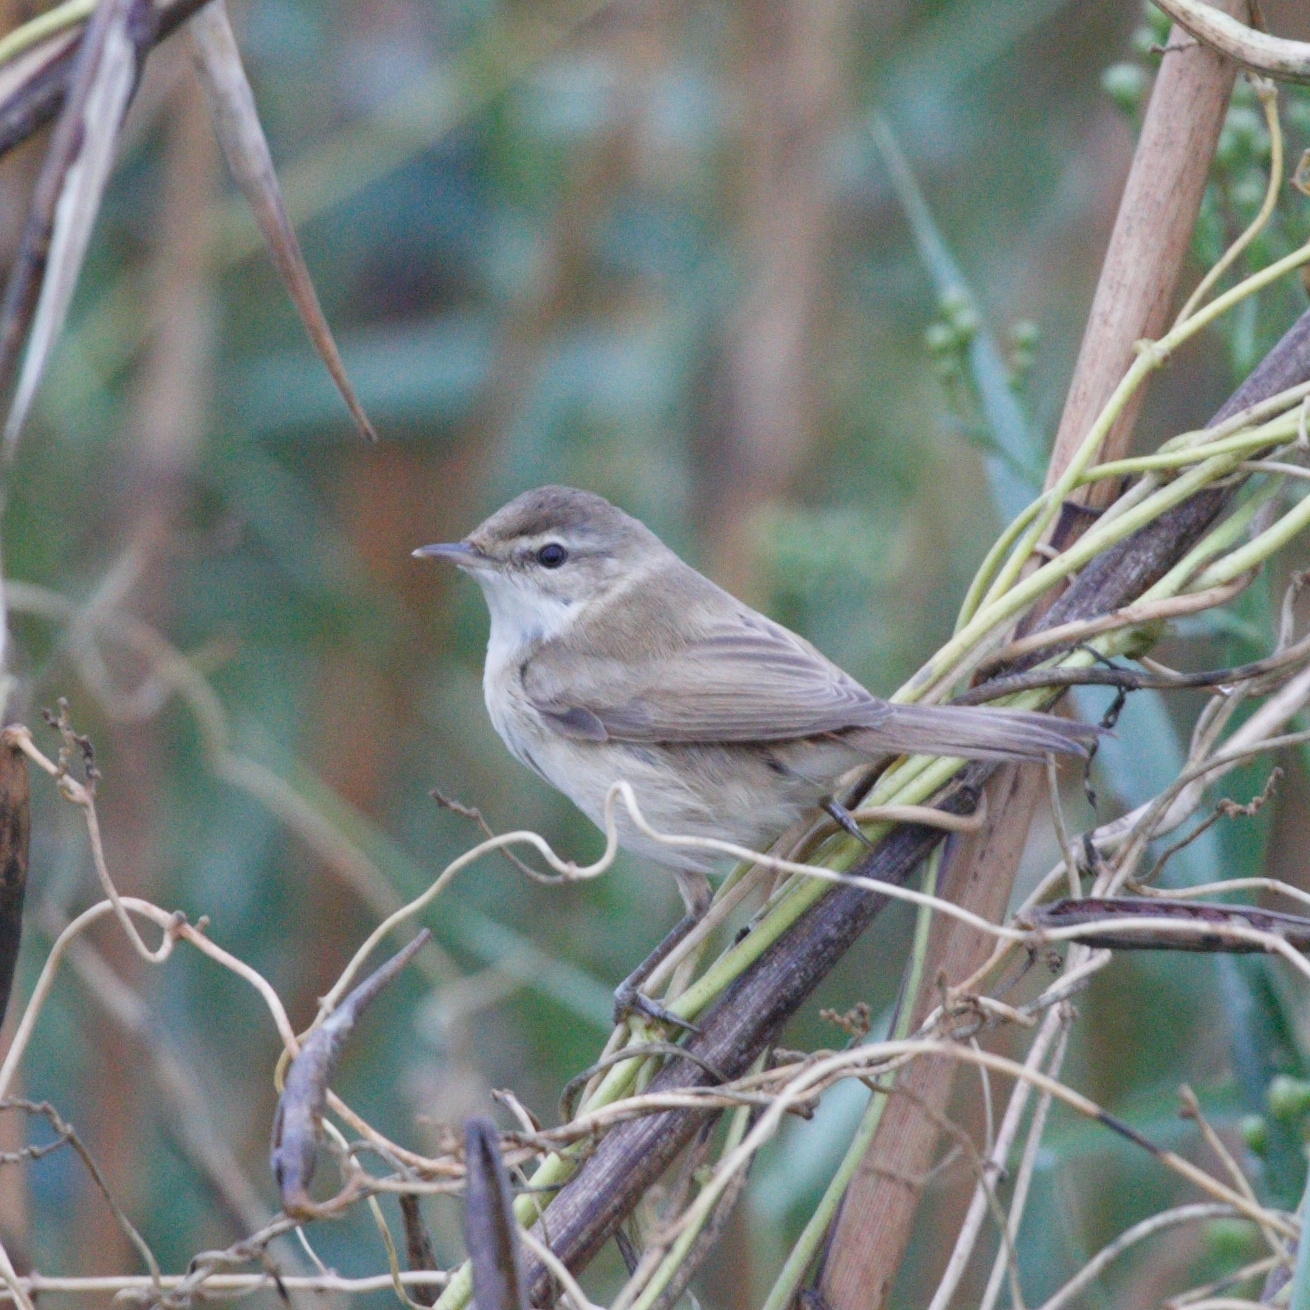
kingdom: Animalia
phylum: Chordata
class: Aves
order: Passeriformes
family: Acrocephalidae
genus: Acrocephalus
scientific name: Acrocephalus agricola
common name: Paddyfield warbler
